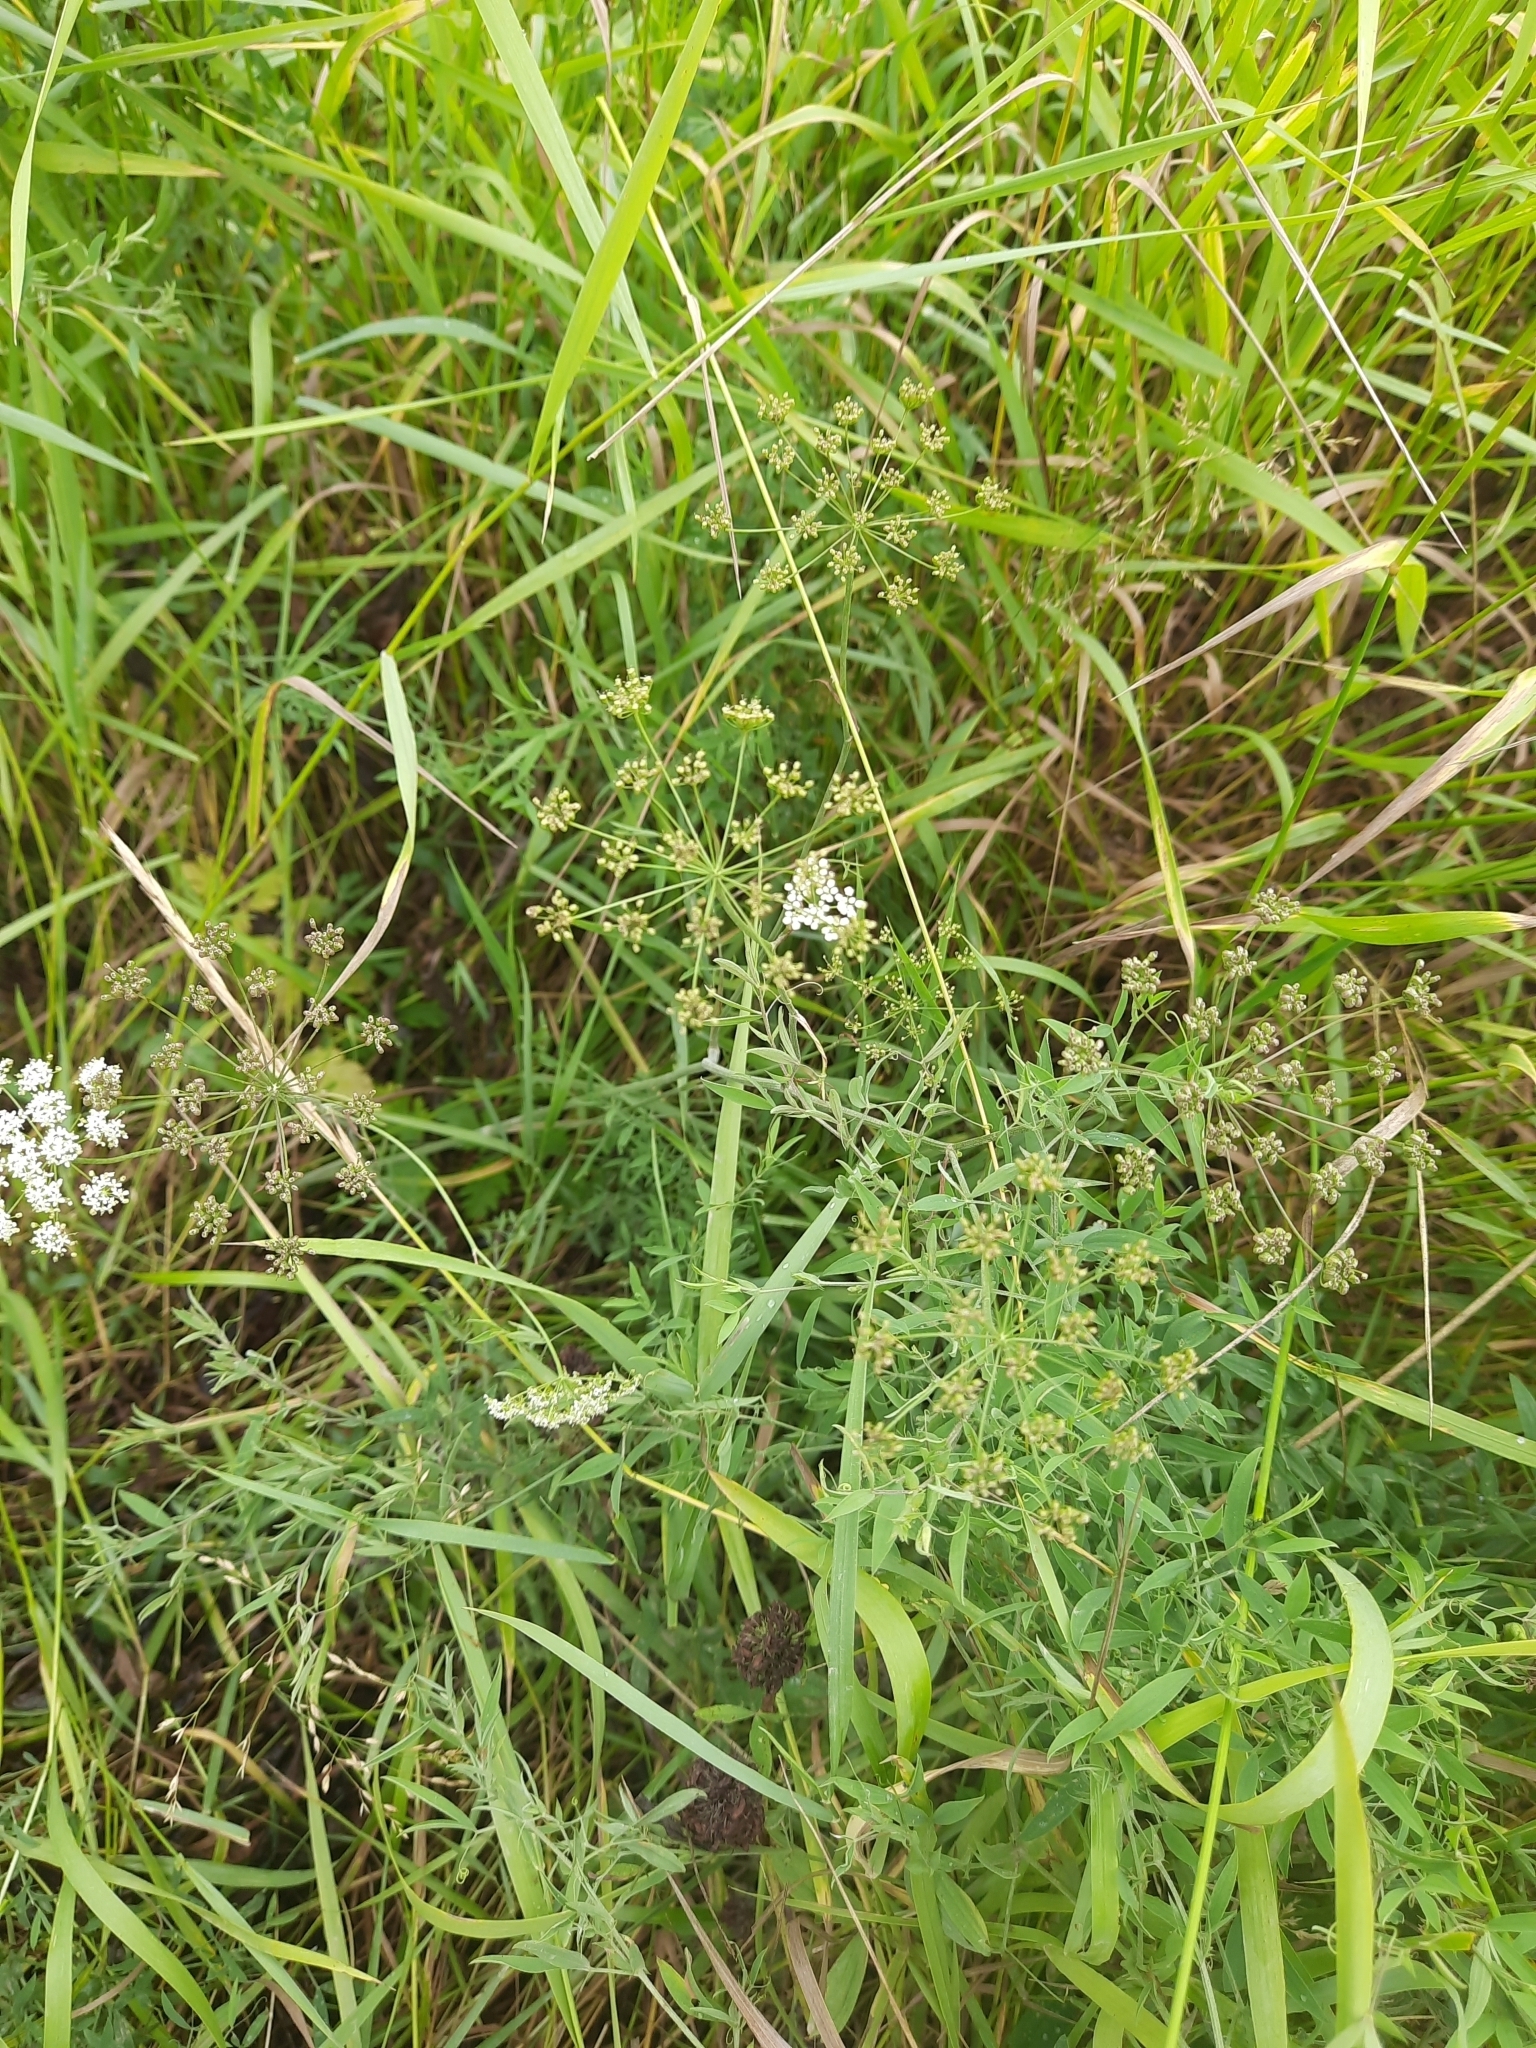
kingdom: Plantae
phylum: Tracheophyta
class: Magnoliopsida
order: Apiales
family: Apiaceae
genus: Pimpinella
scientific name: Pimpinella saxifraga
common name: Burnet-saxifrage
